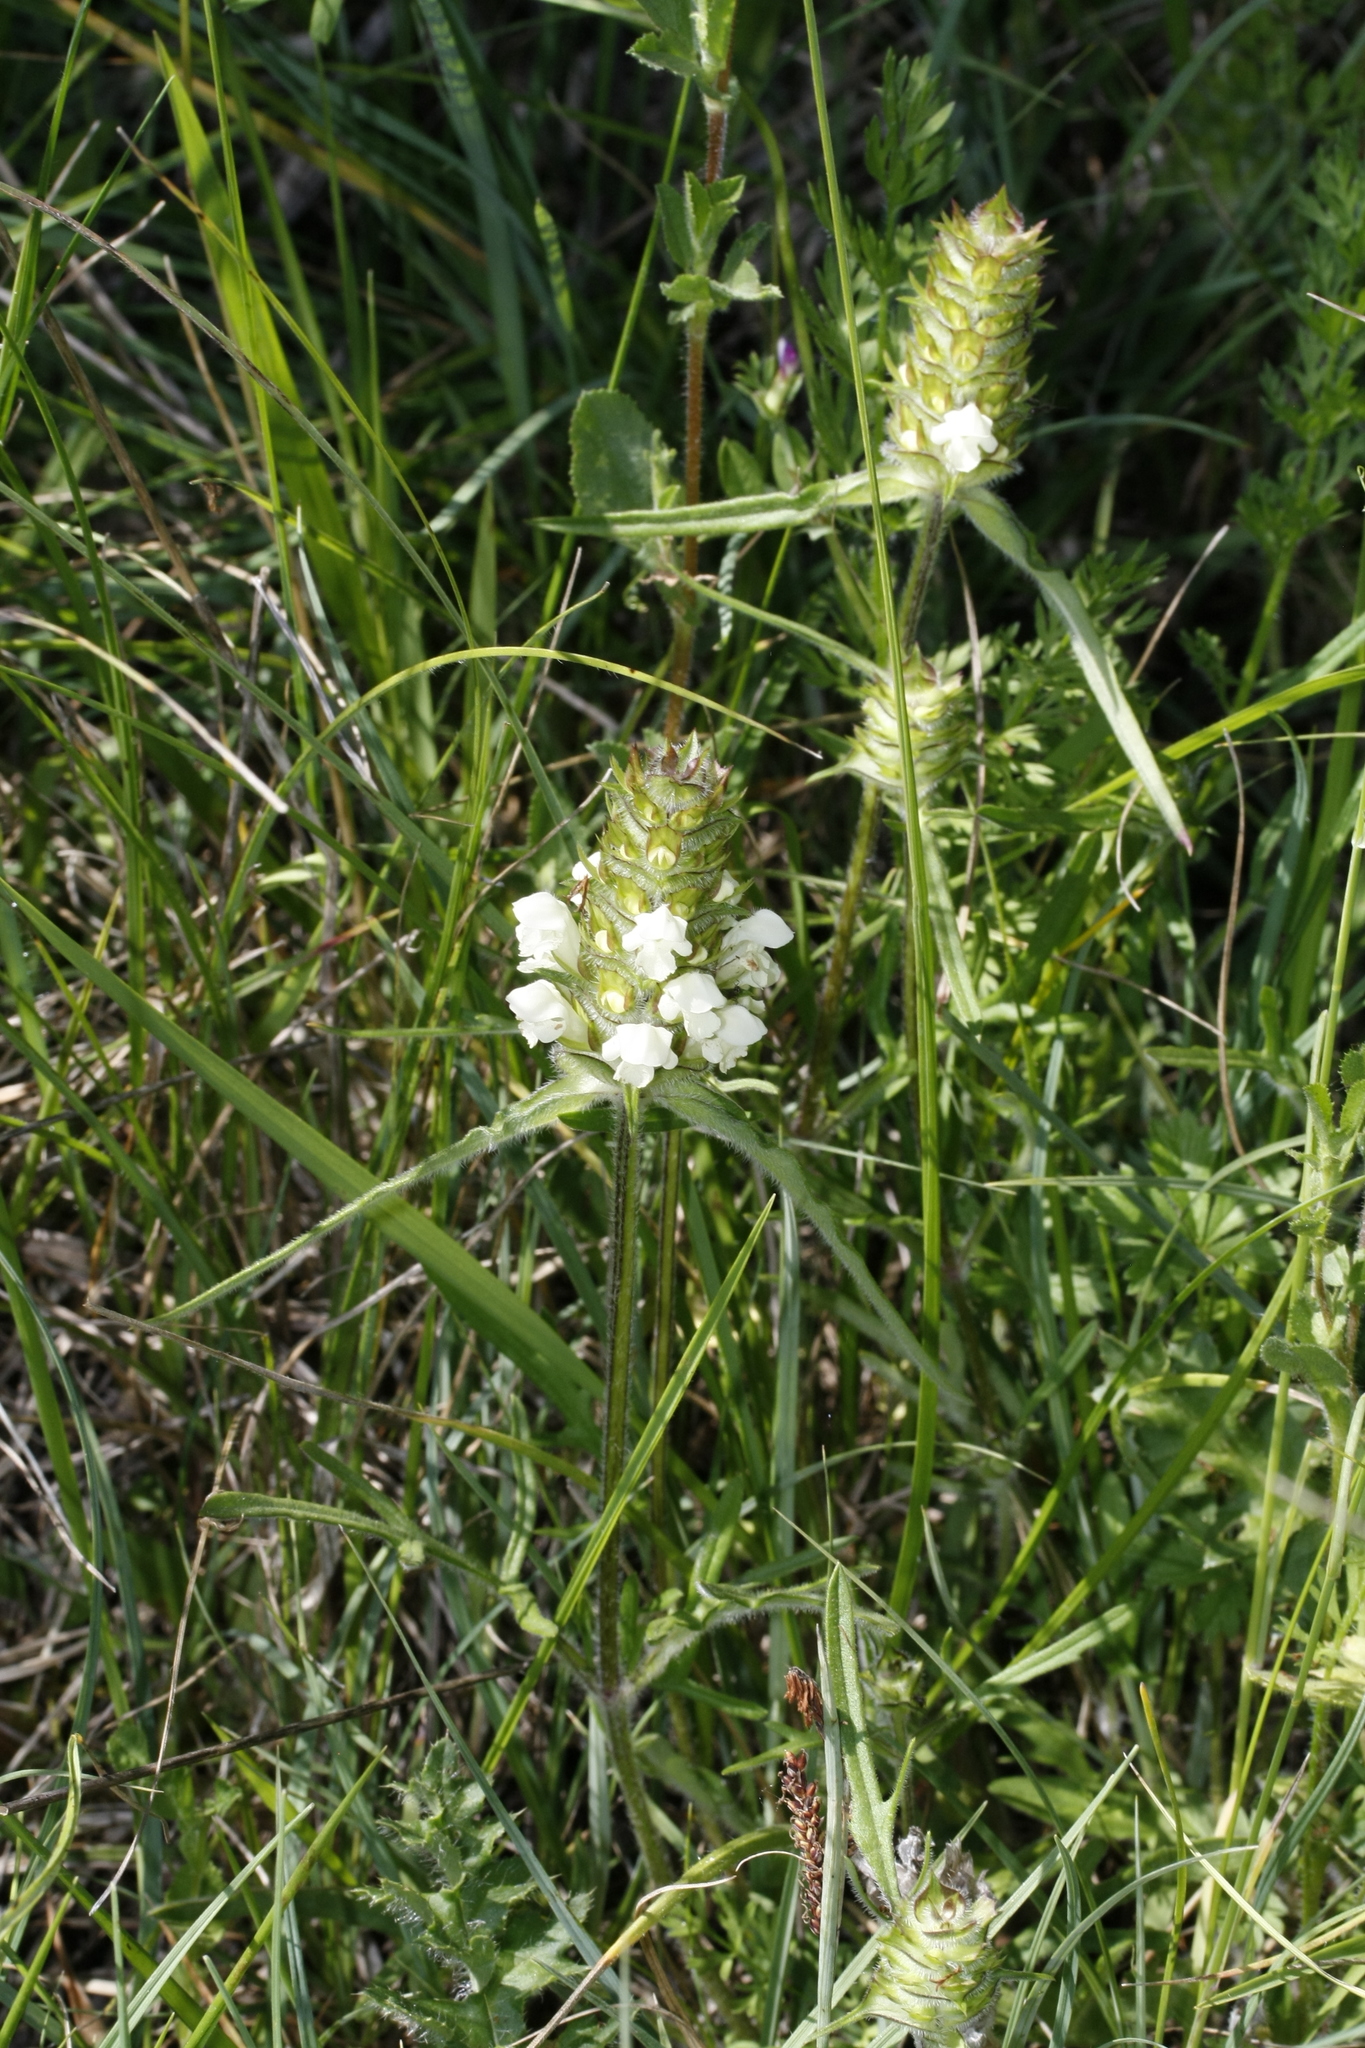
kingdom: Plantae
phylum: Tracheophyta
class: Magnoliopsida
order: Lamiales
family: Lamiaceae
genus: Prunella
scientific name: Prunella laciniata
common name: Cut-leaved selfheal
